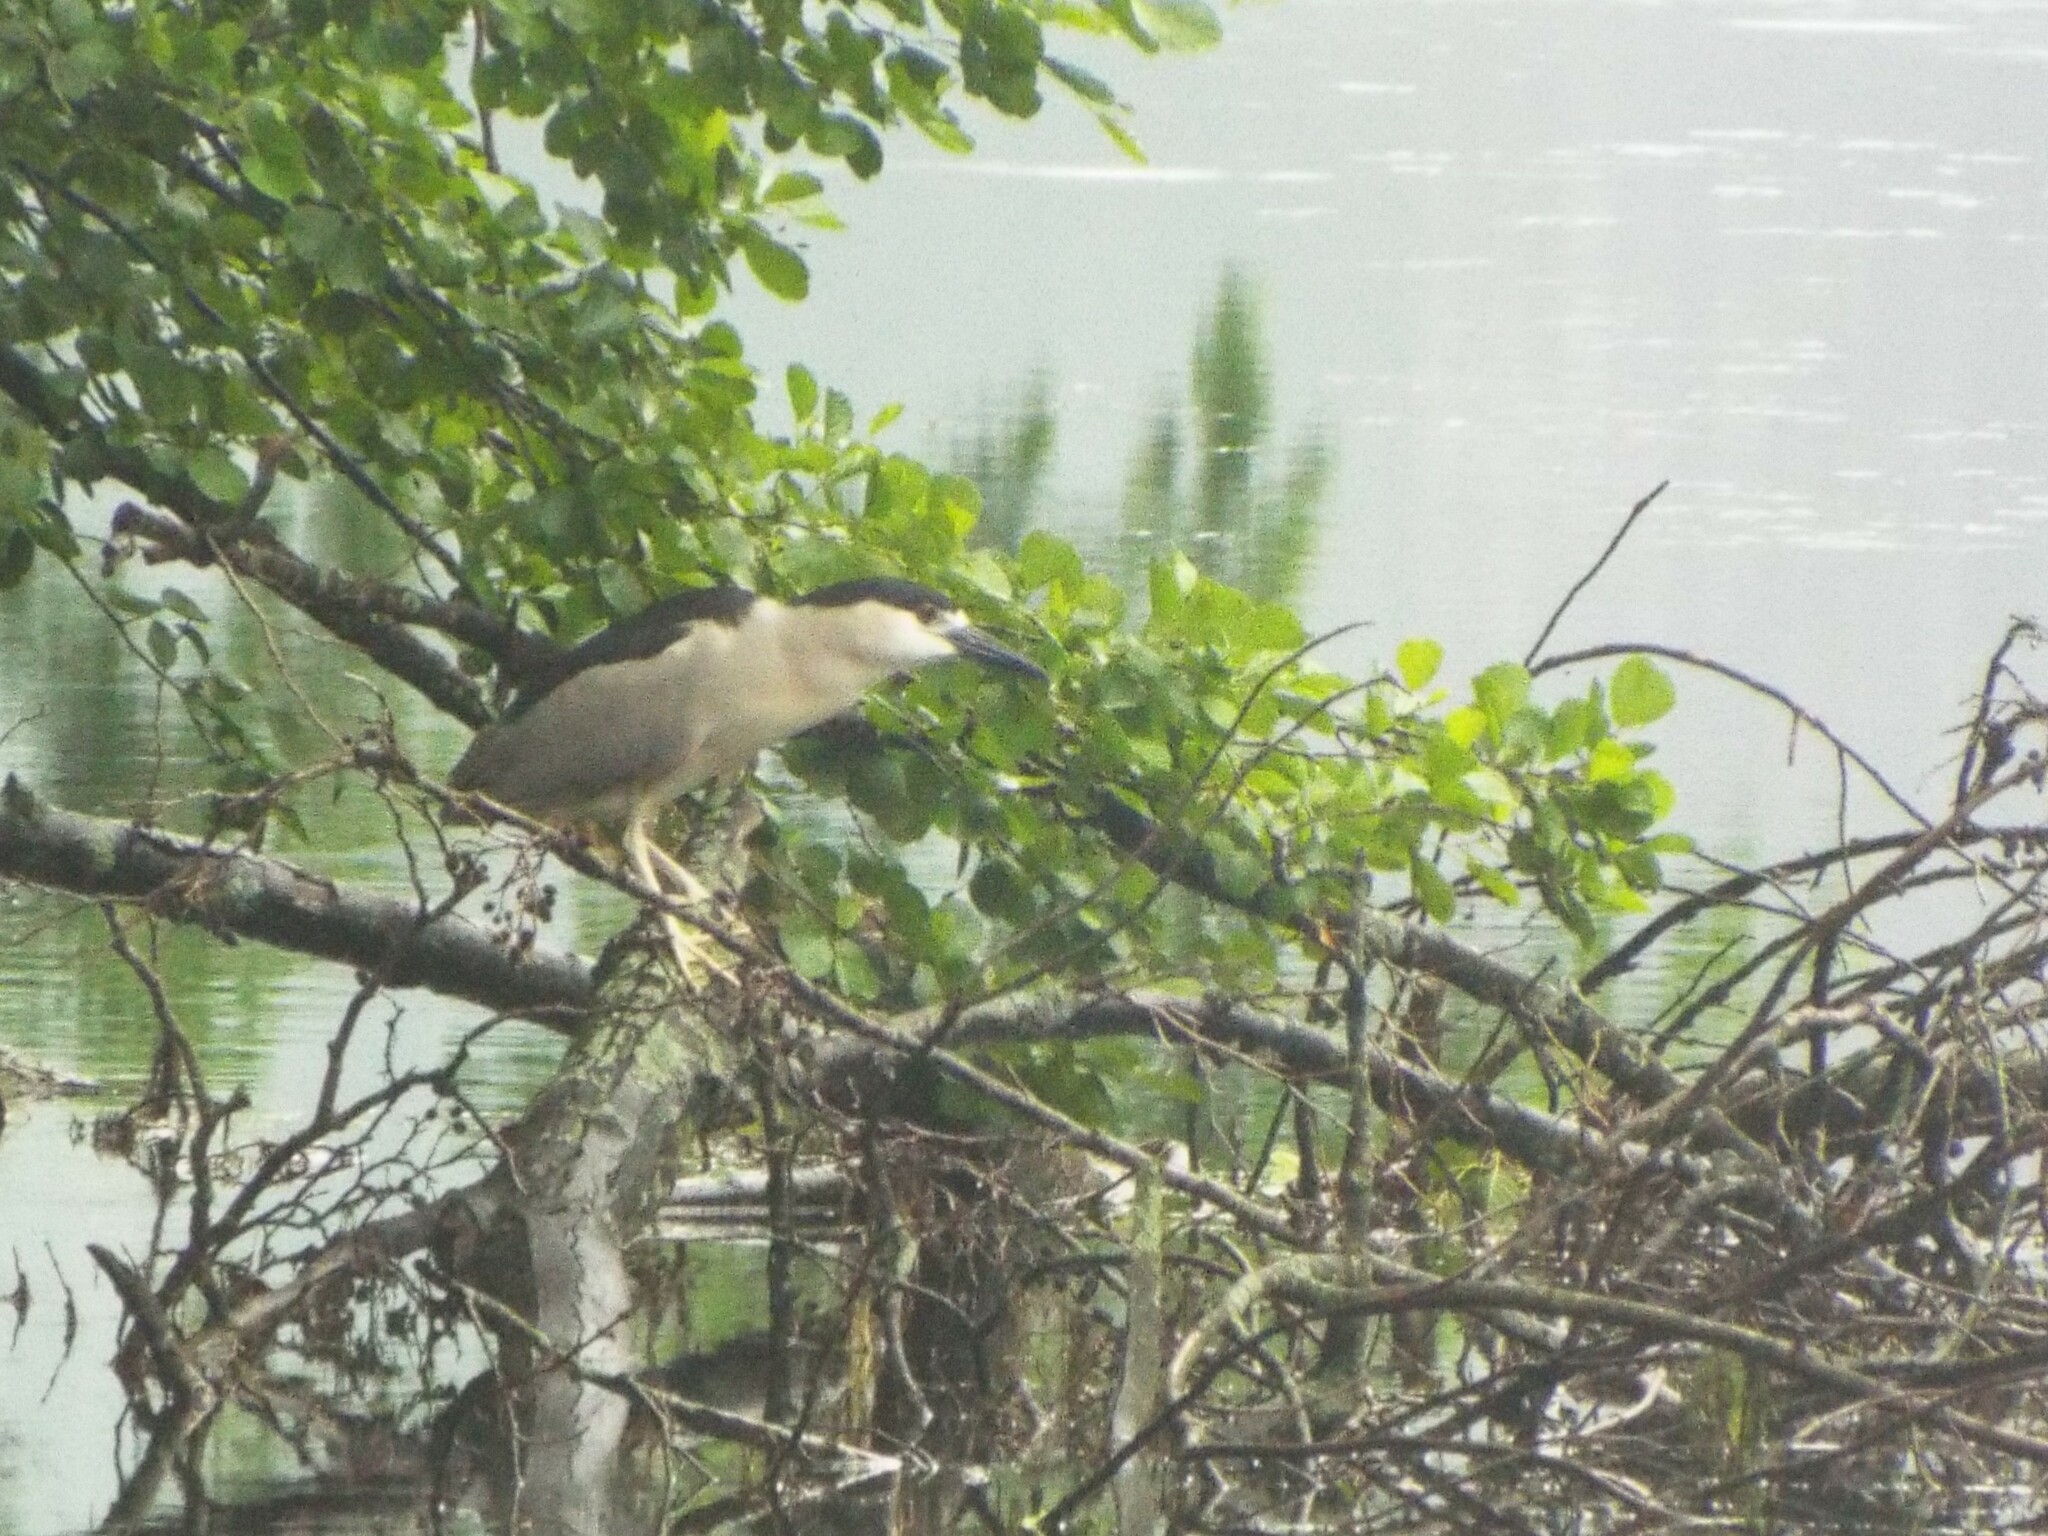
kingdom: Animalia
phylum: Chordata
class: Aves
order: Pelecaniformes
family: Ardeidae
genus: Nycticorax
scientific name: Nycticorax nycticorax
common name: Black-crowned night heron
